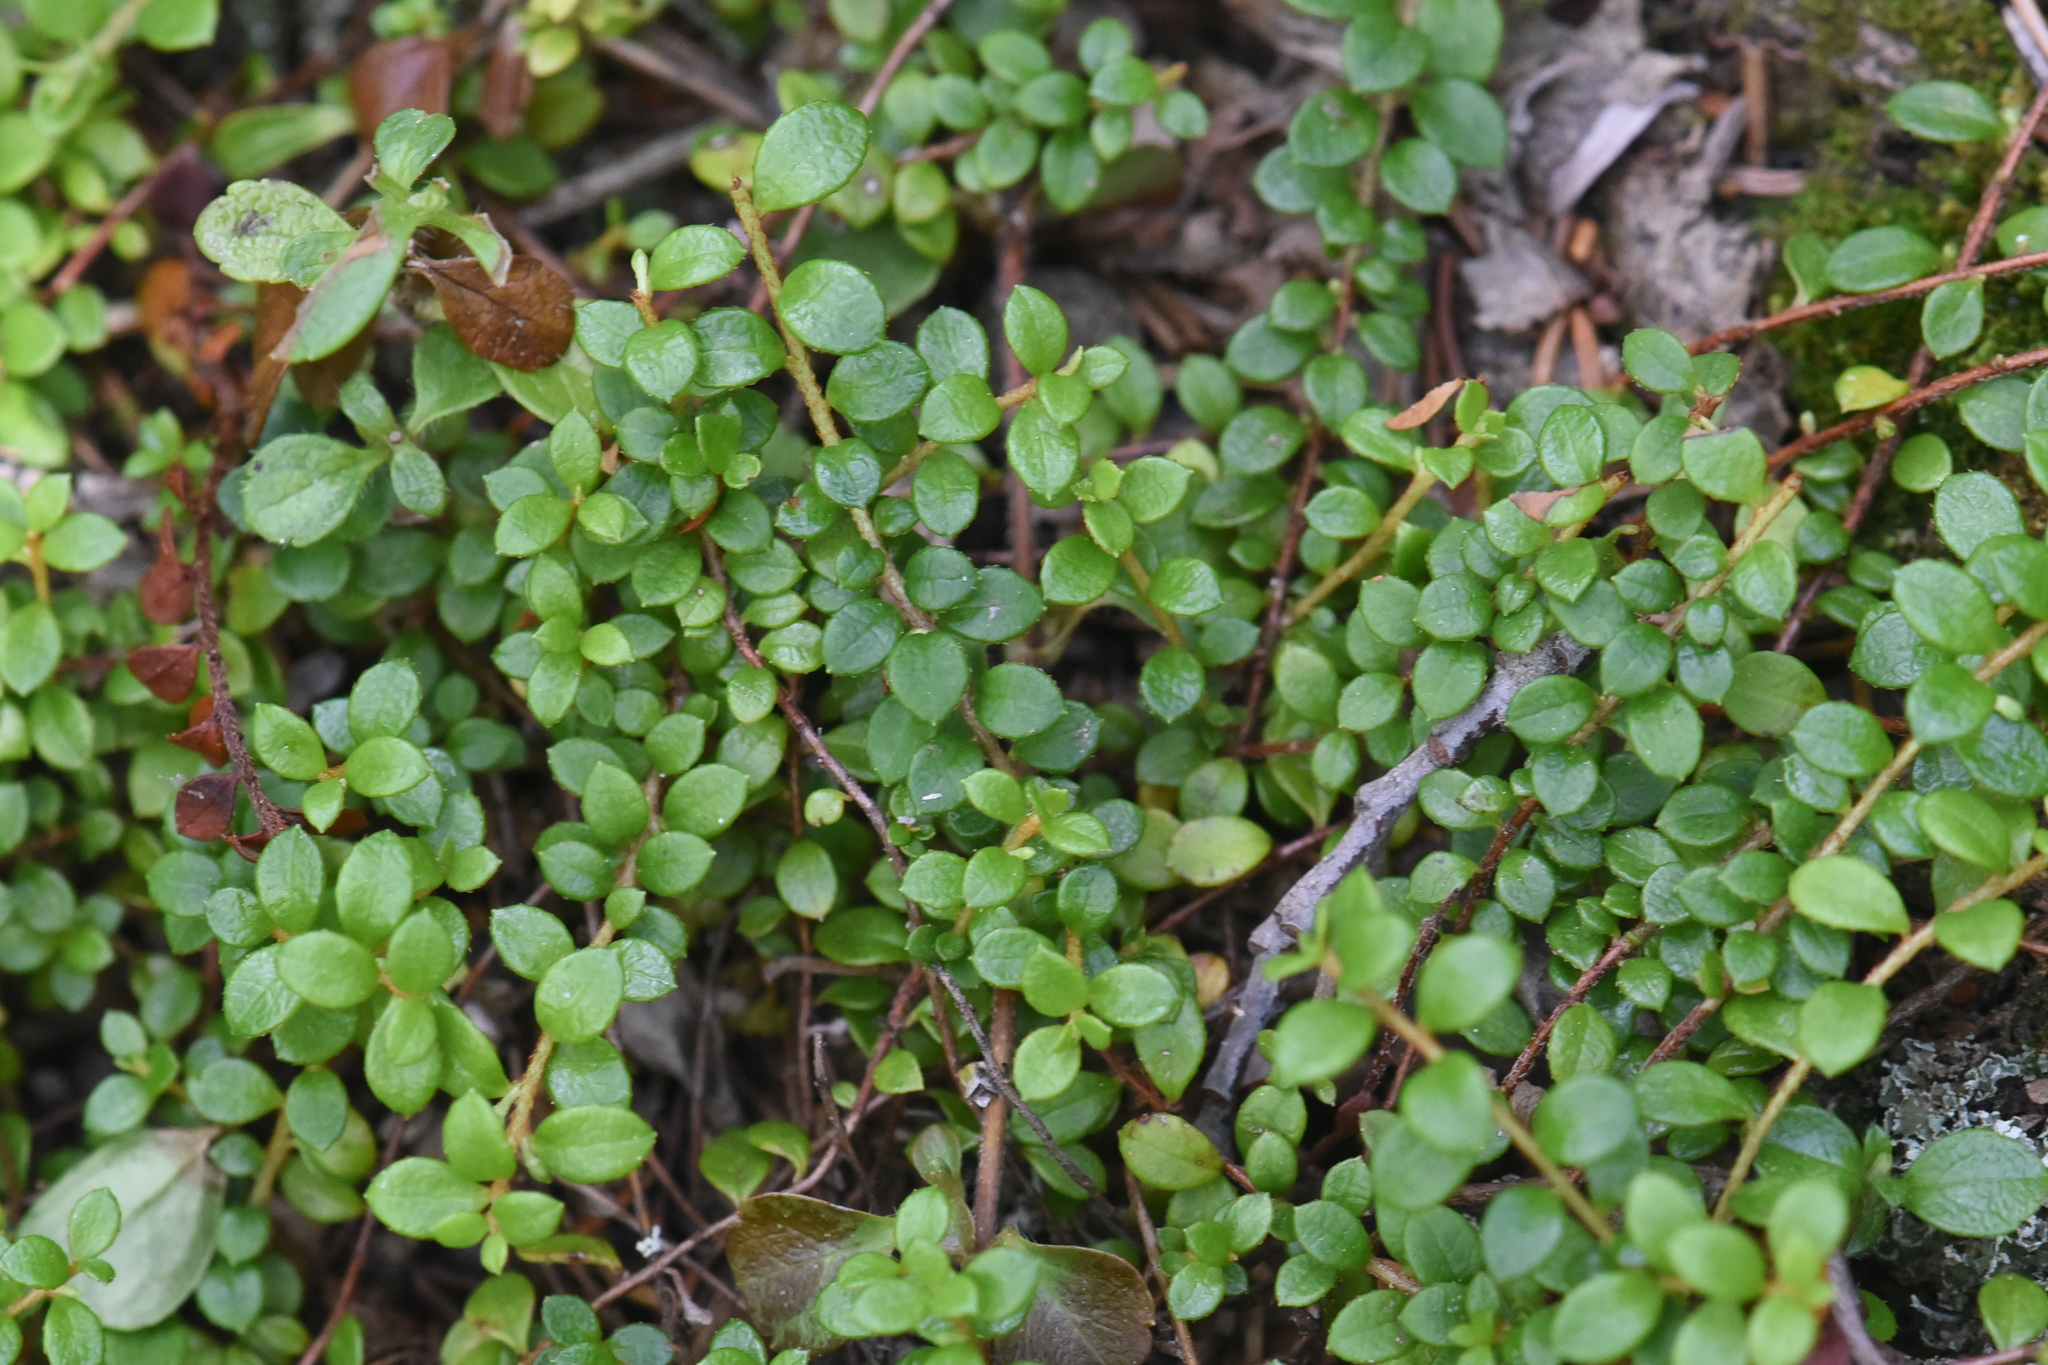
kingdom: Plantae
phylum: Tracheophyta
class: Magnoliopsida
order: Ericales
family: Ericaceae
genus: Gaultheria
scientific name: Gaultheria hispidula
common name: Cancer wintergreen
